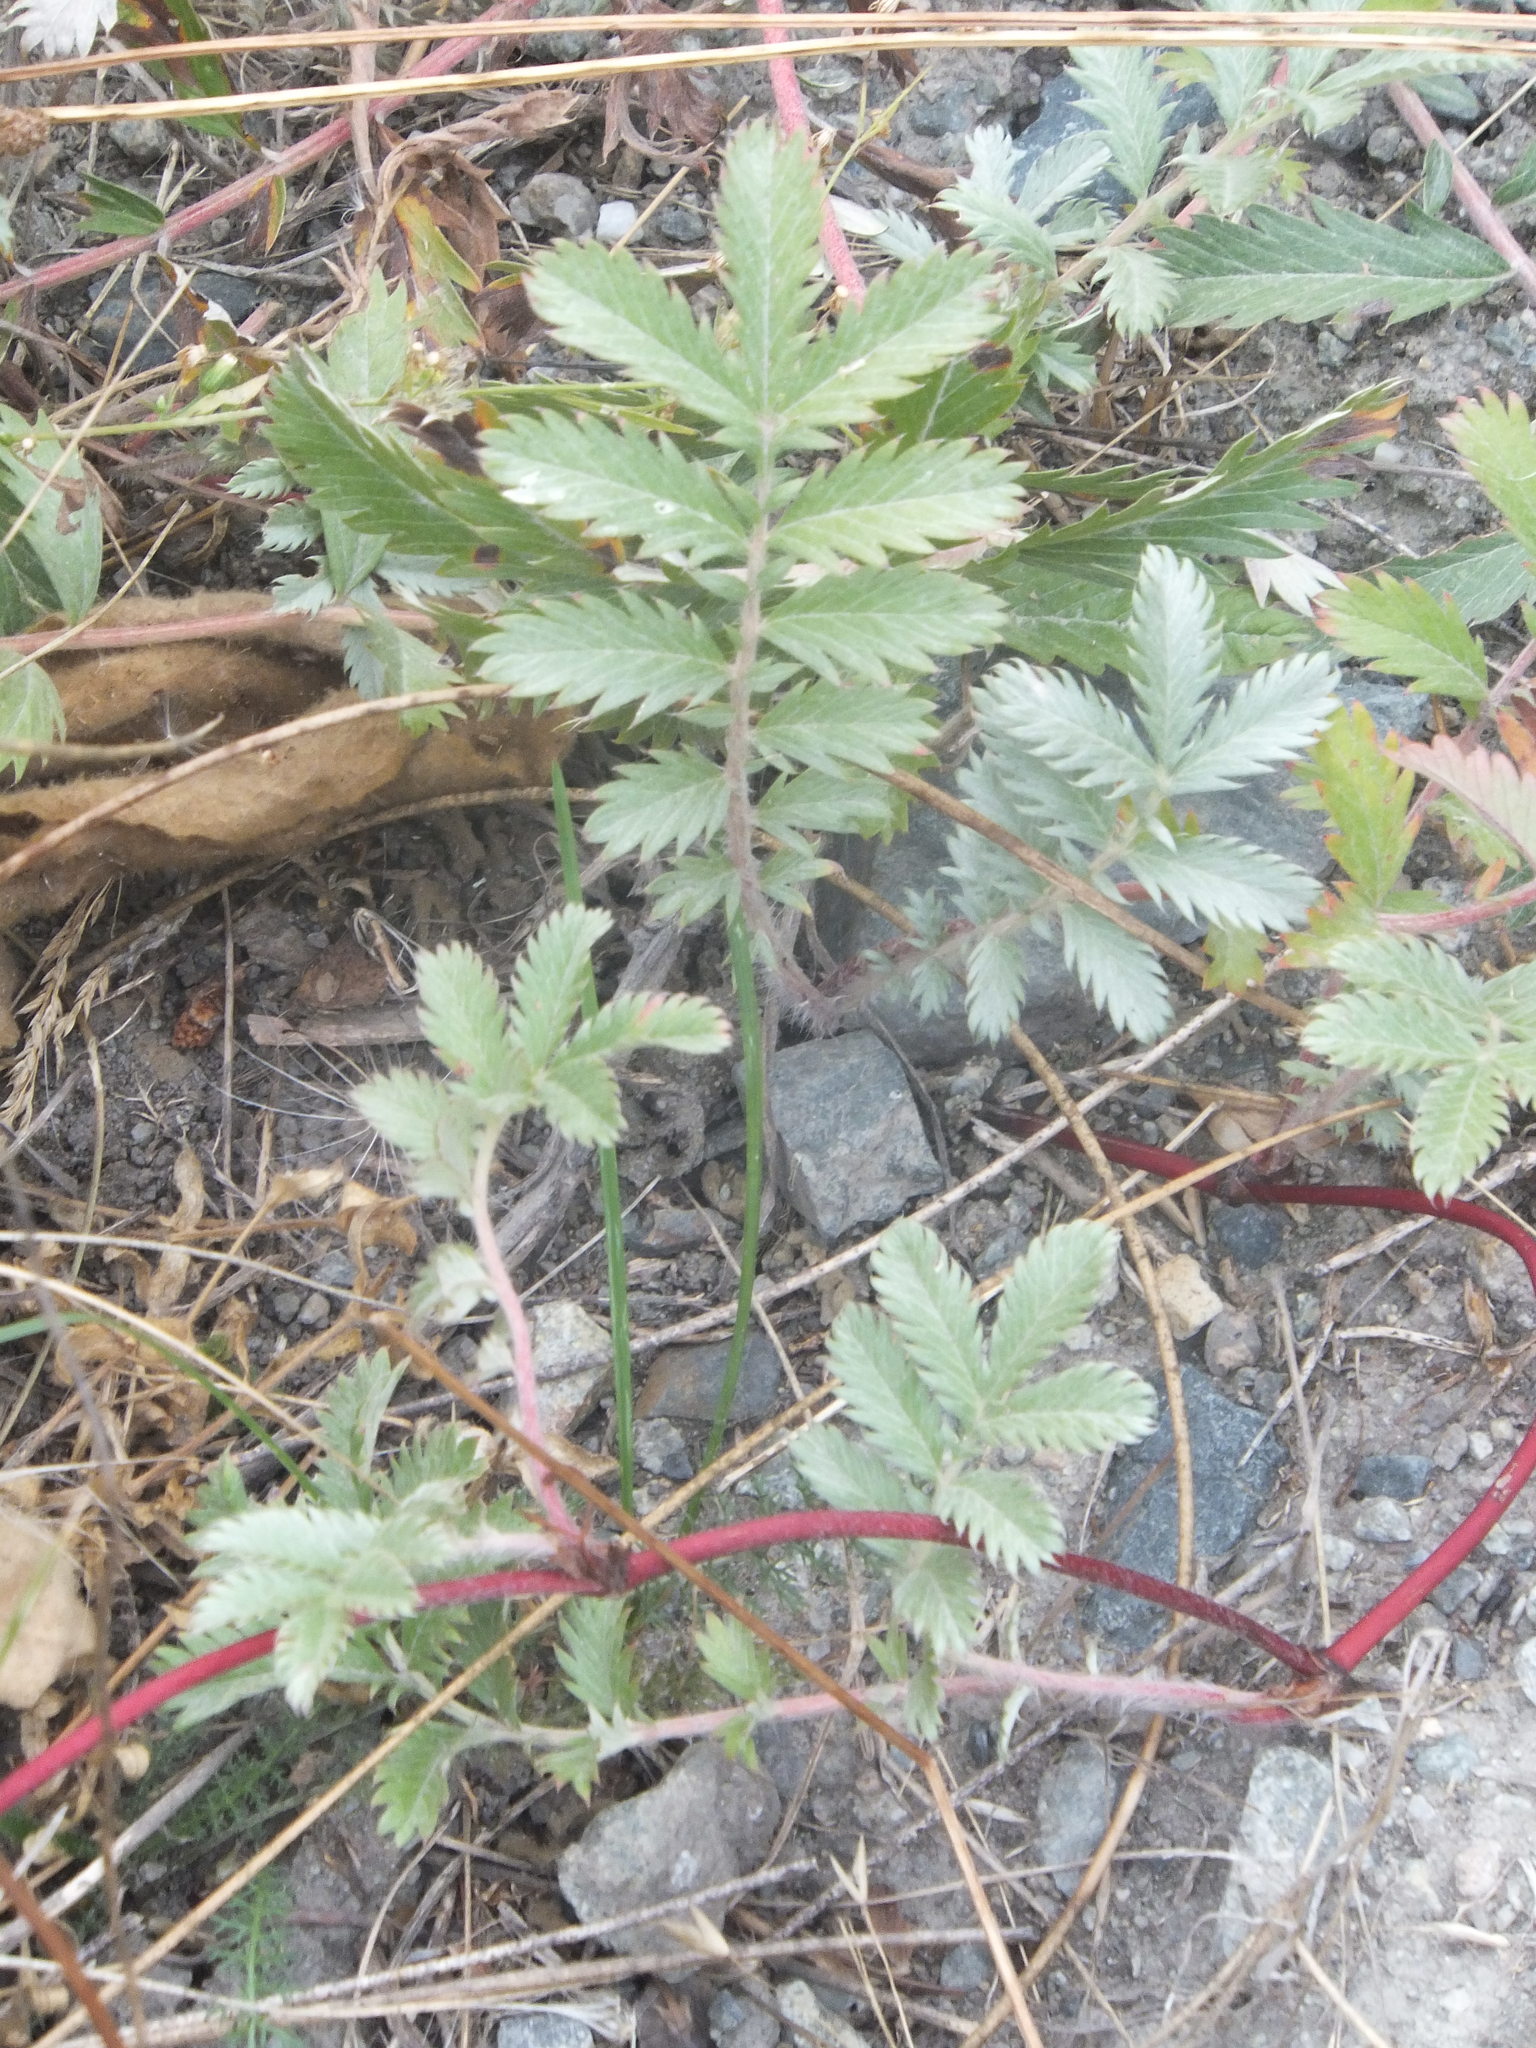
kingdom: Plantae
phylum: Tracheophyta
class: Magnoliopsida
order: Rosales
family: Rosaceae
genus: Argentina
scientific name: Argentina anserina
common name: Common silverweed
